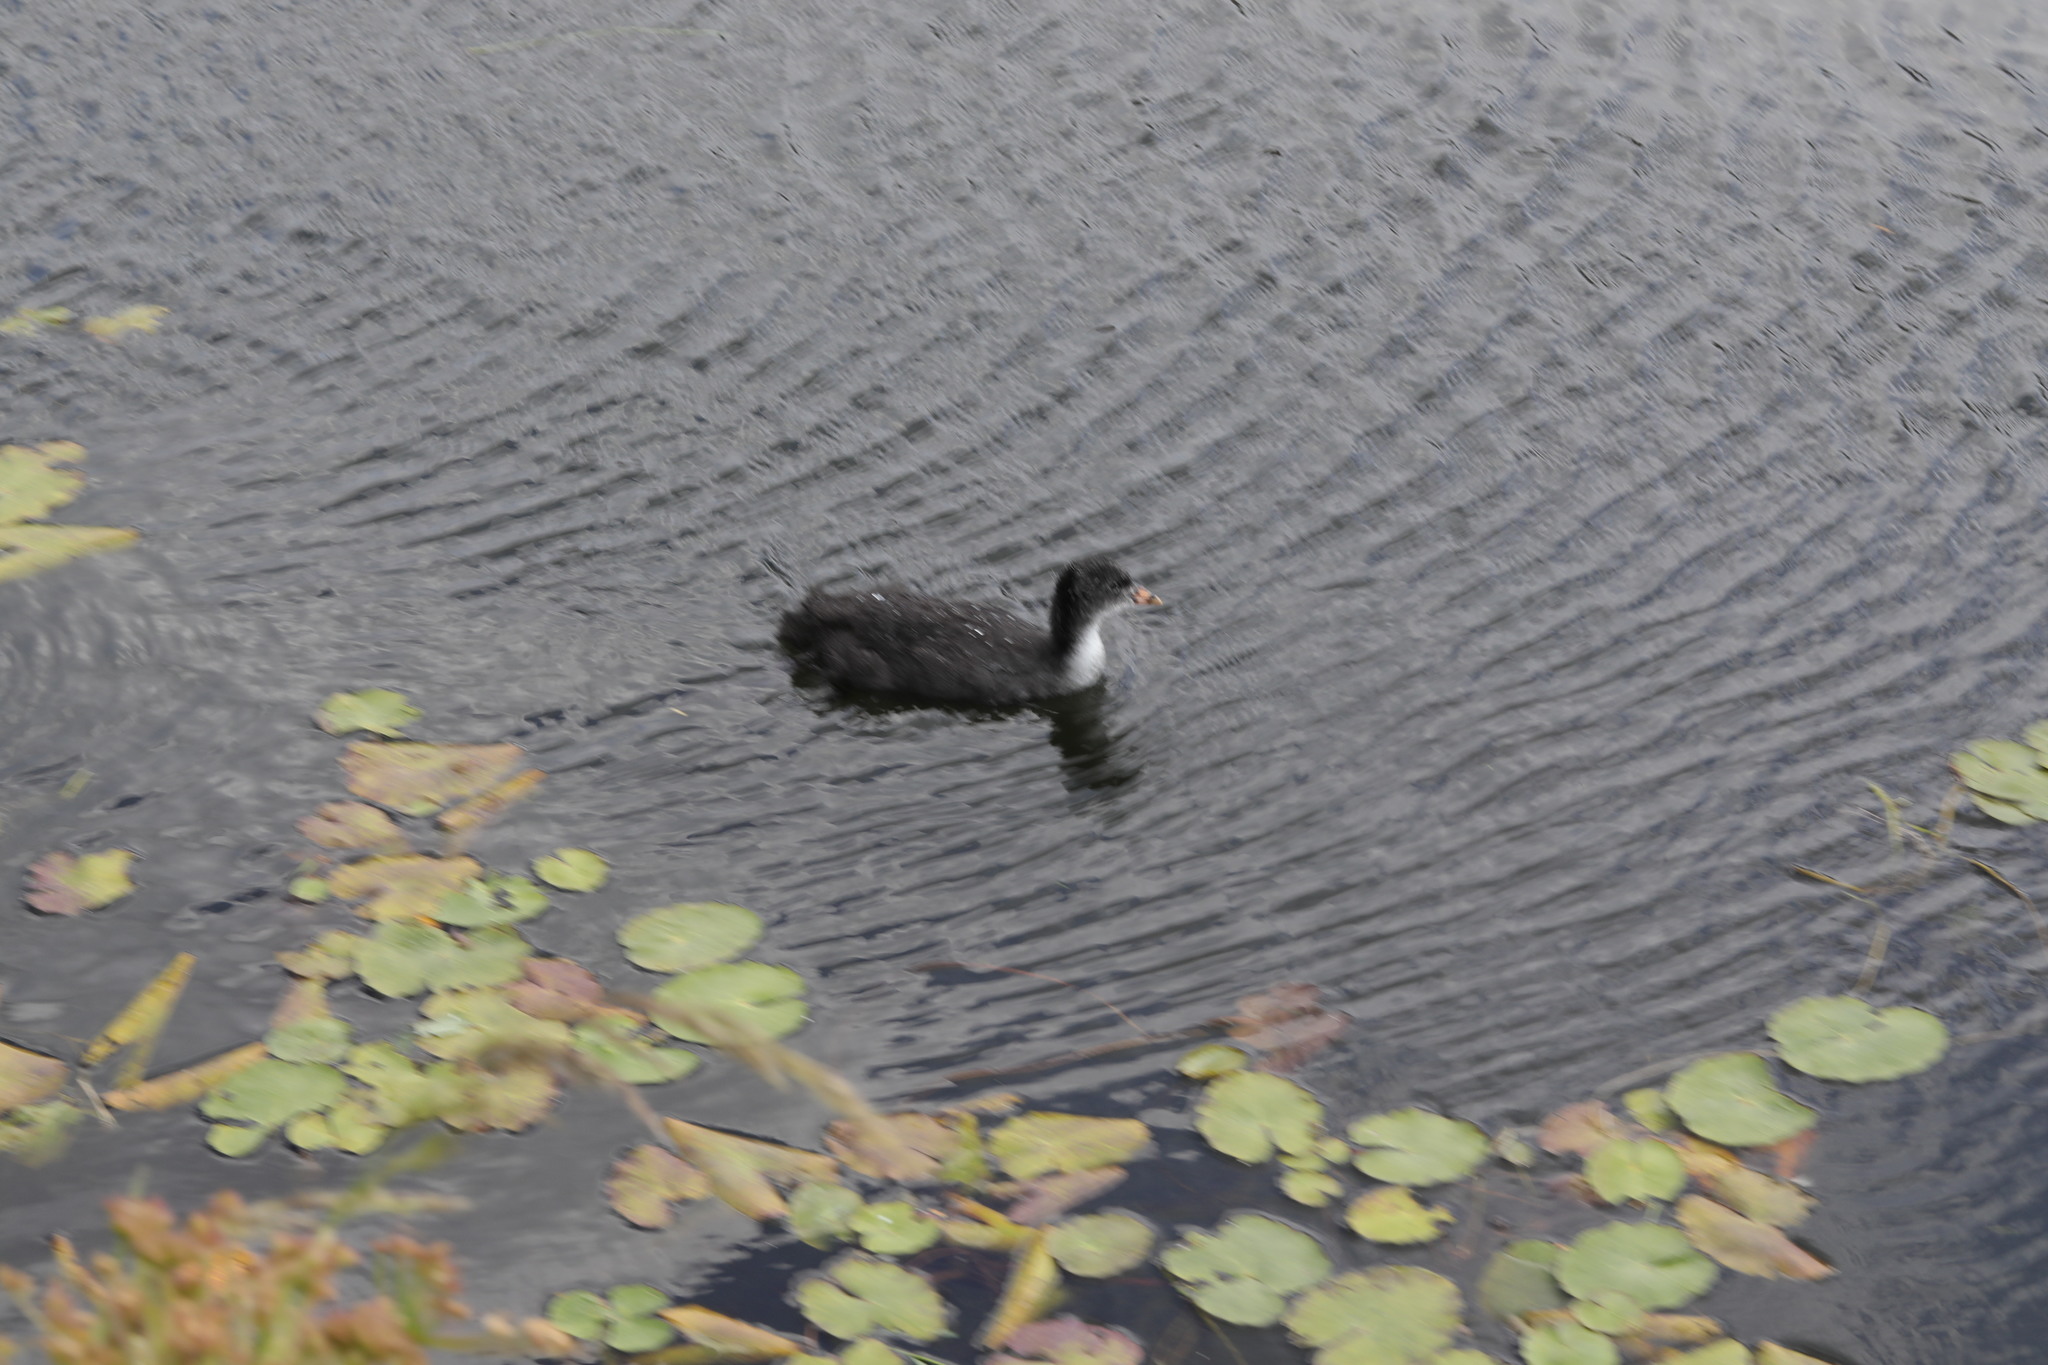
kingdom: Animalia
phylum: Chordata
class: Aves
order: Gruiformes
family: Rallidae
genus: Fulica
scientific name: Fulica atra
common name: Eurasian coot
